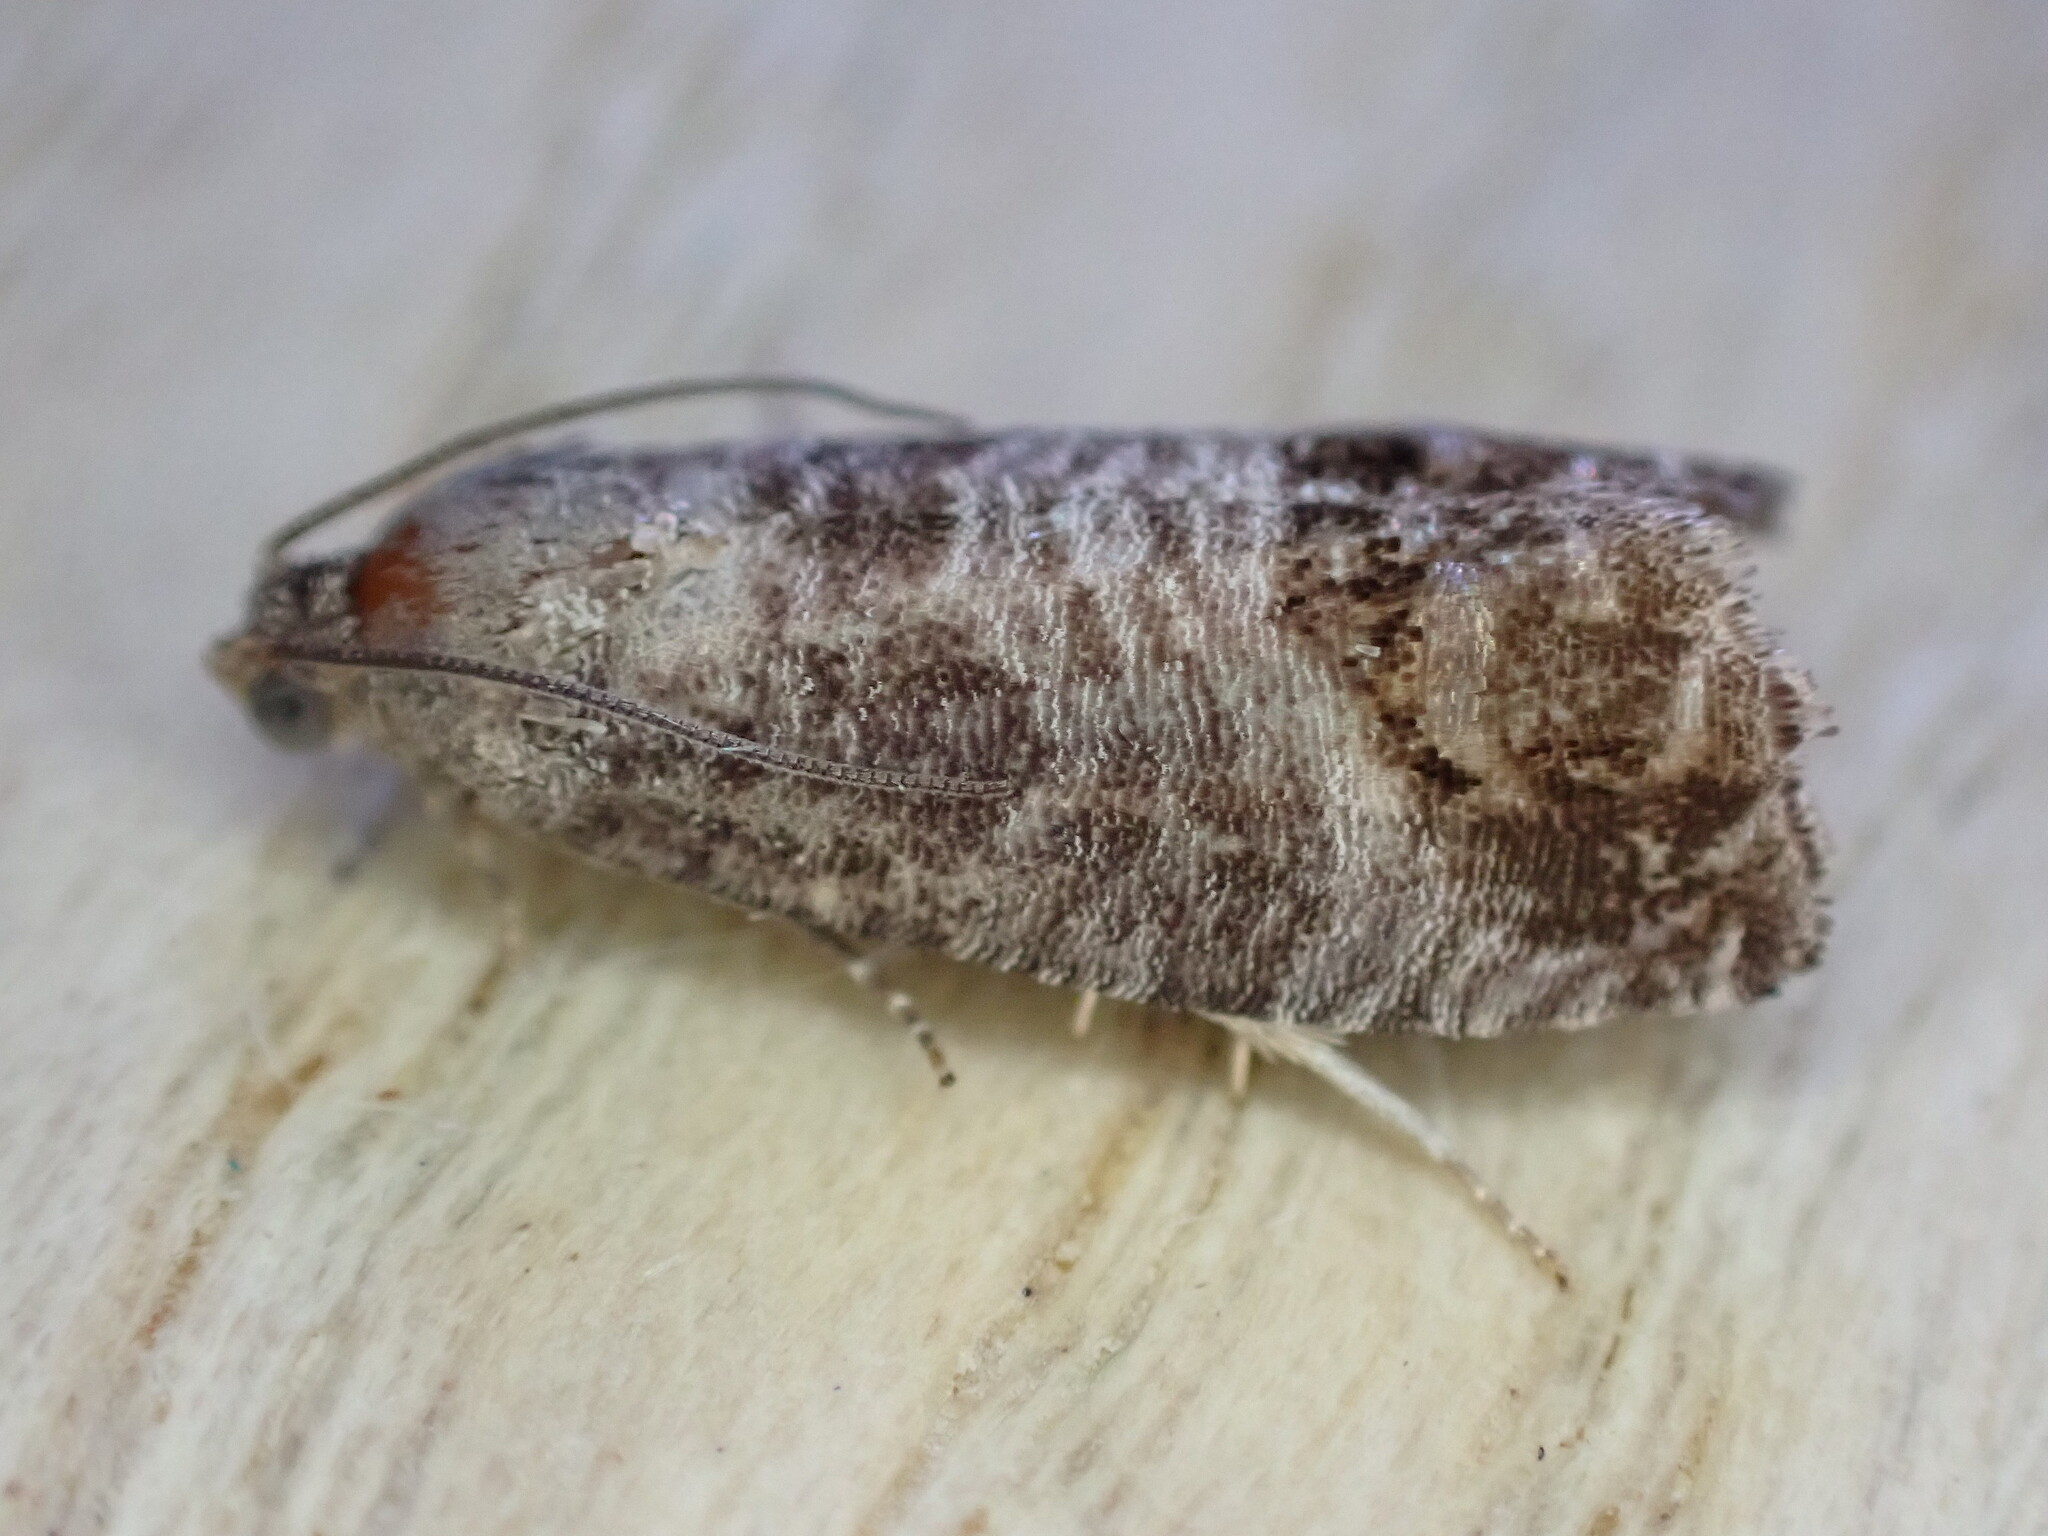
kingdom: Animalia
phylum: Arthropoda
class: Insecta
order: Lepidoptera
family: Tortricidae
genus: Cydia
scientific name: Cydia pomonella
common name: Codling moth
